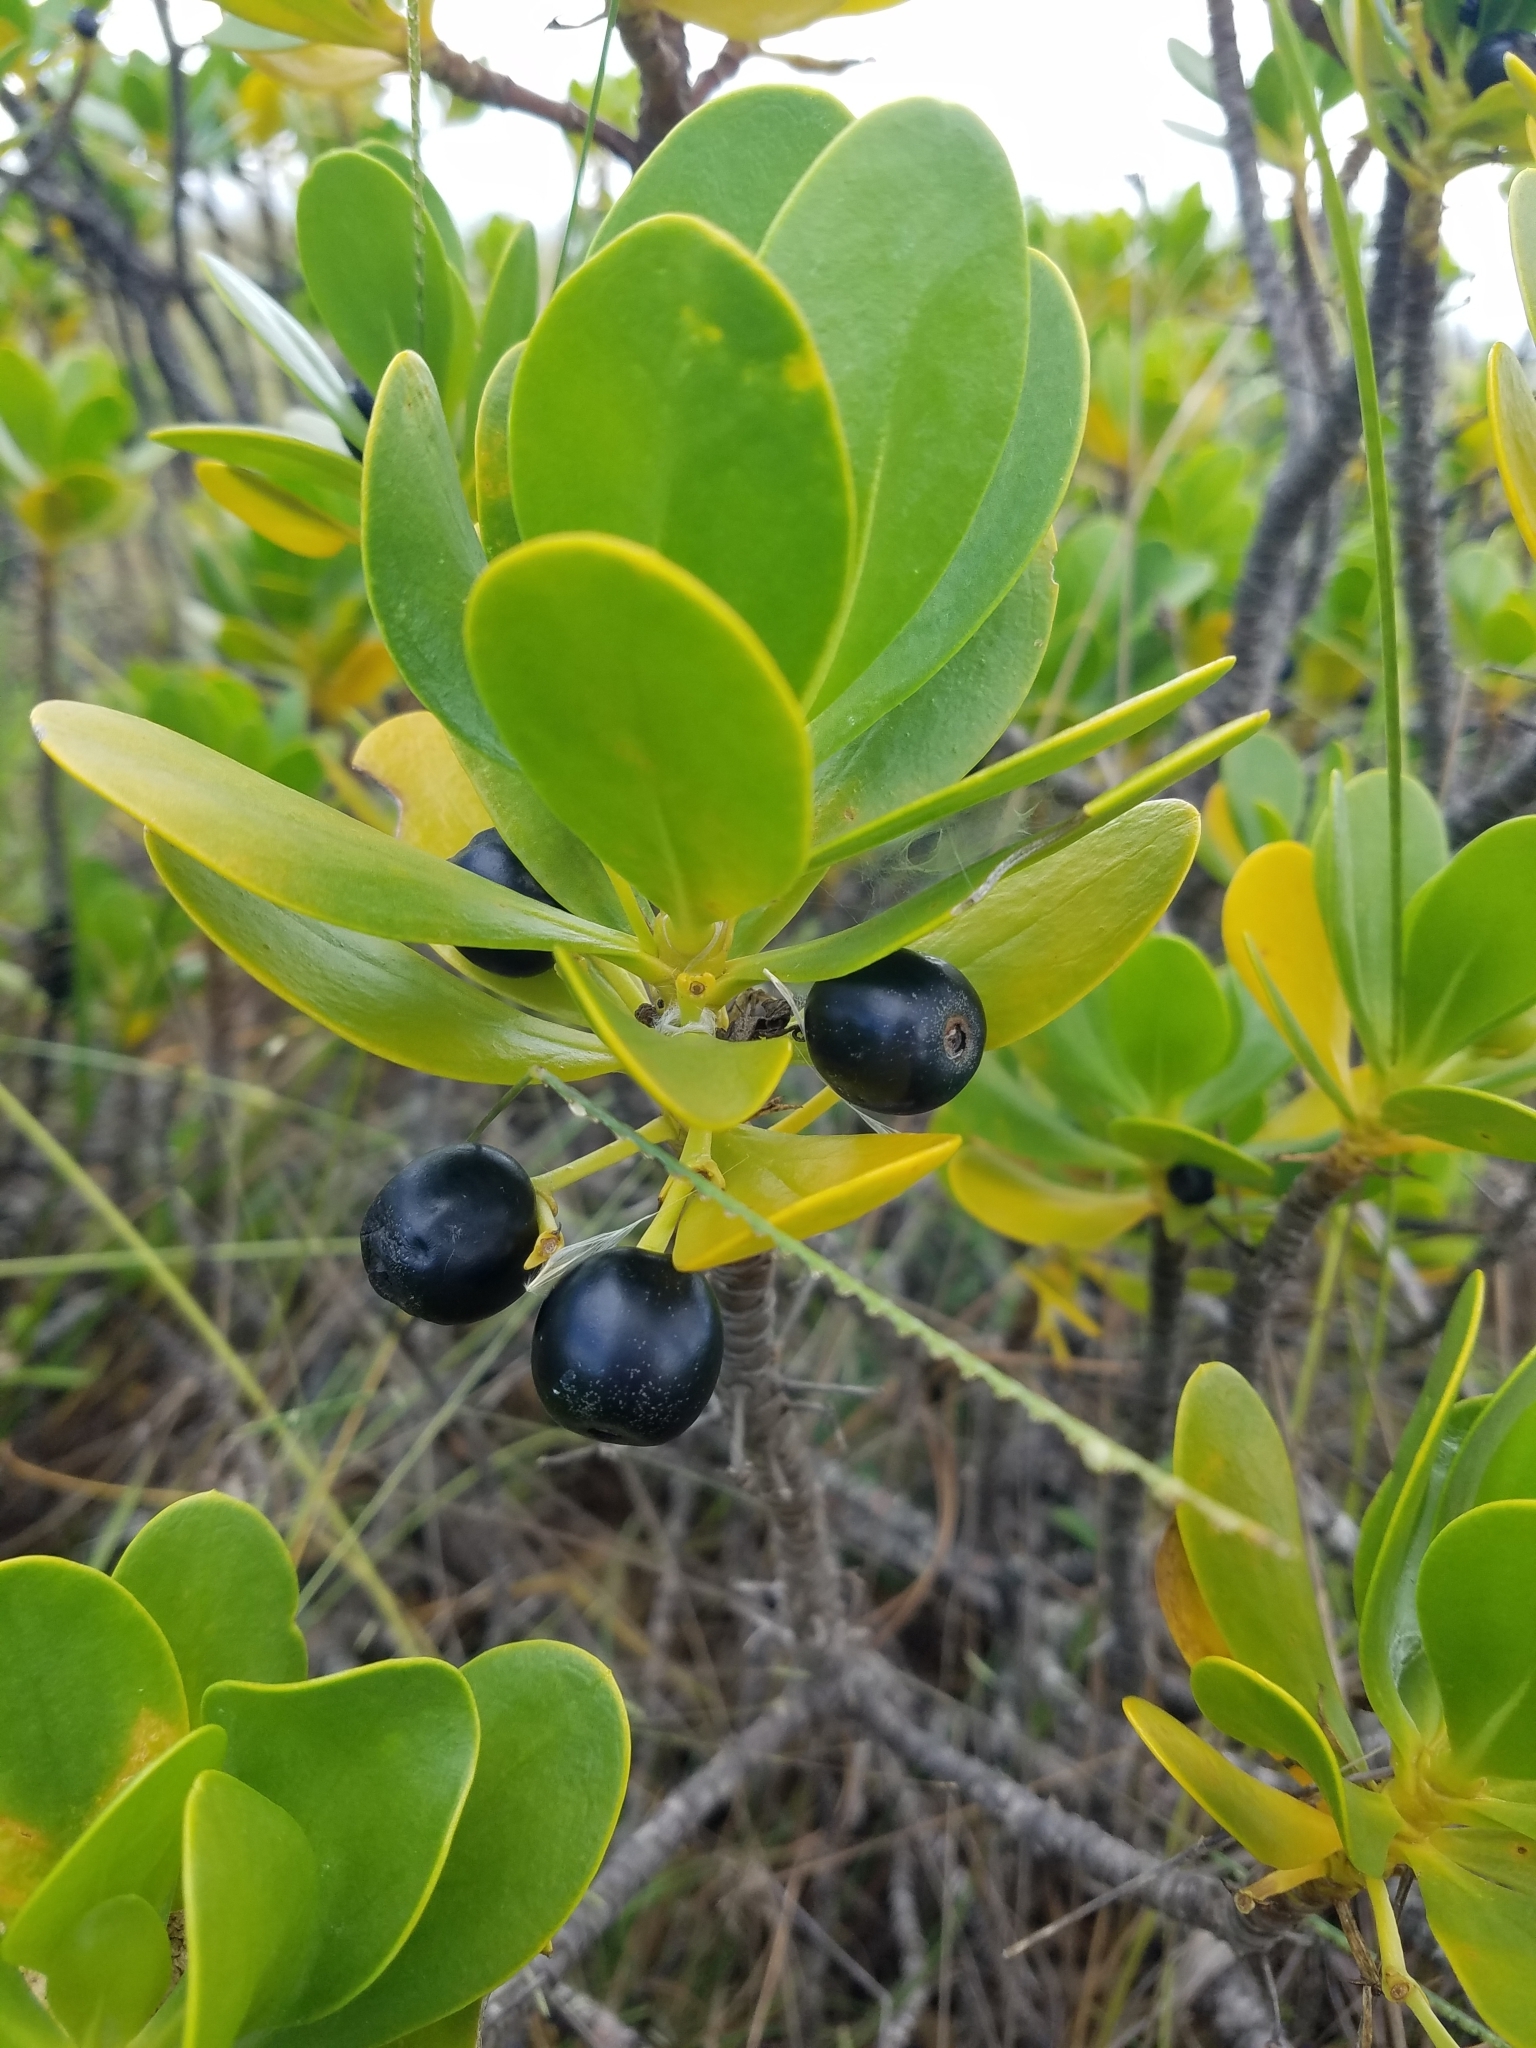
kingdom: Plantae
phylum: Tracheophyta
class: Magnoliopsida
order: Asterales
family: Goodeniaceae
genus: Scaevola
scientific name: Scaevola plumieri
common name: Gull feed
